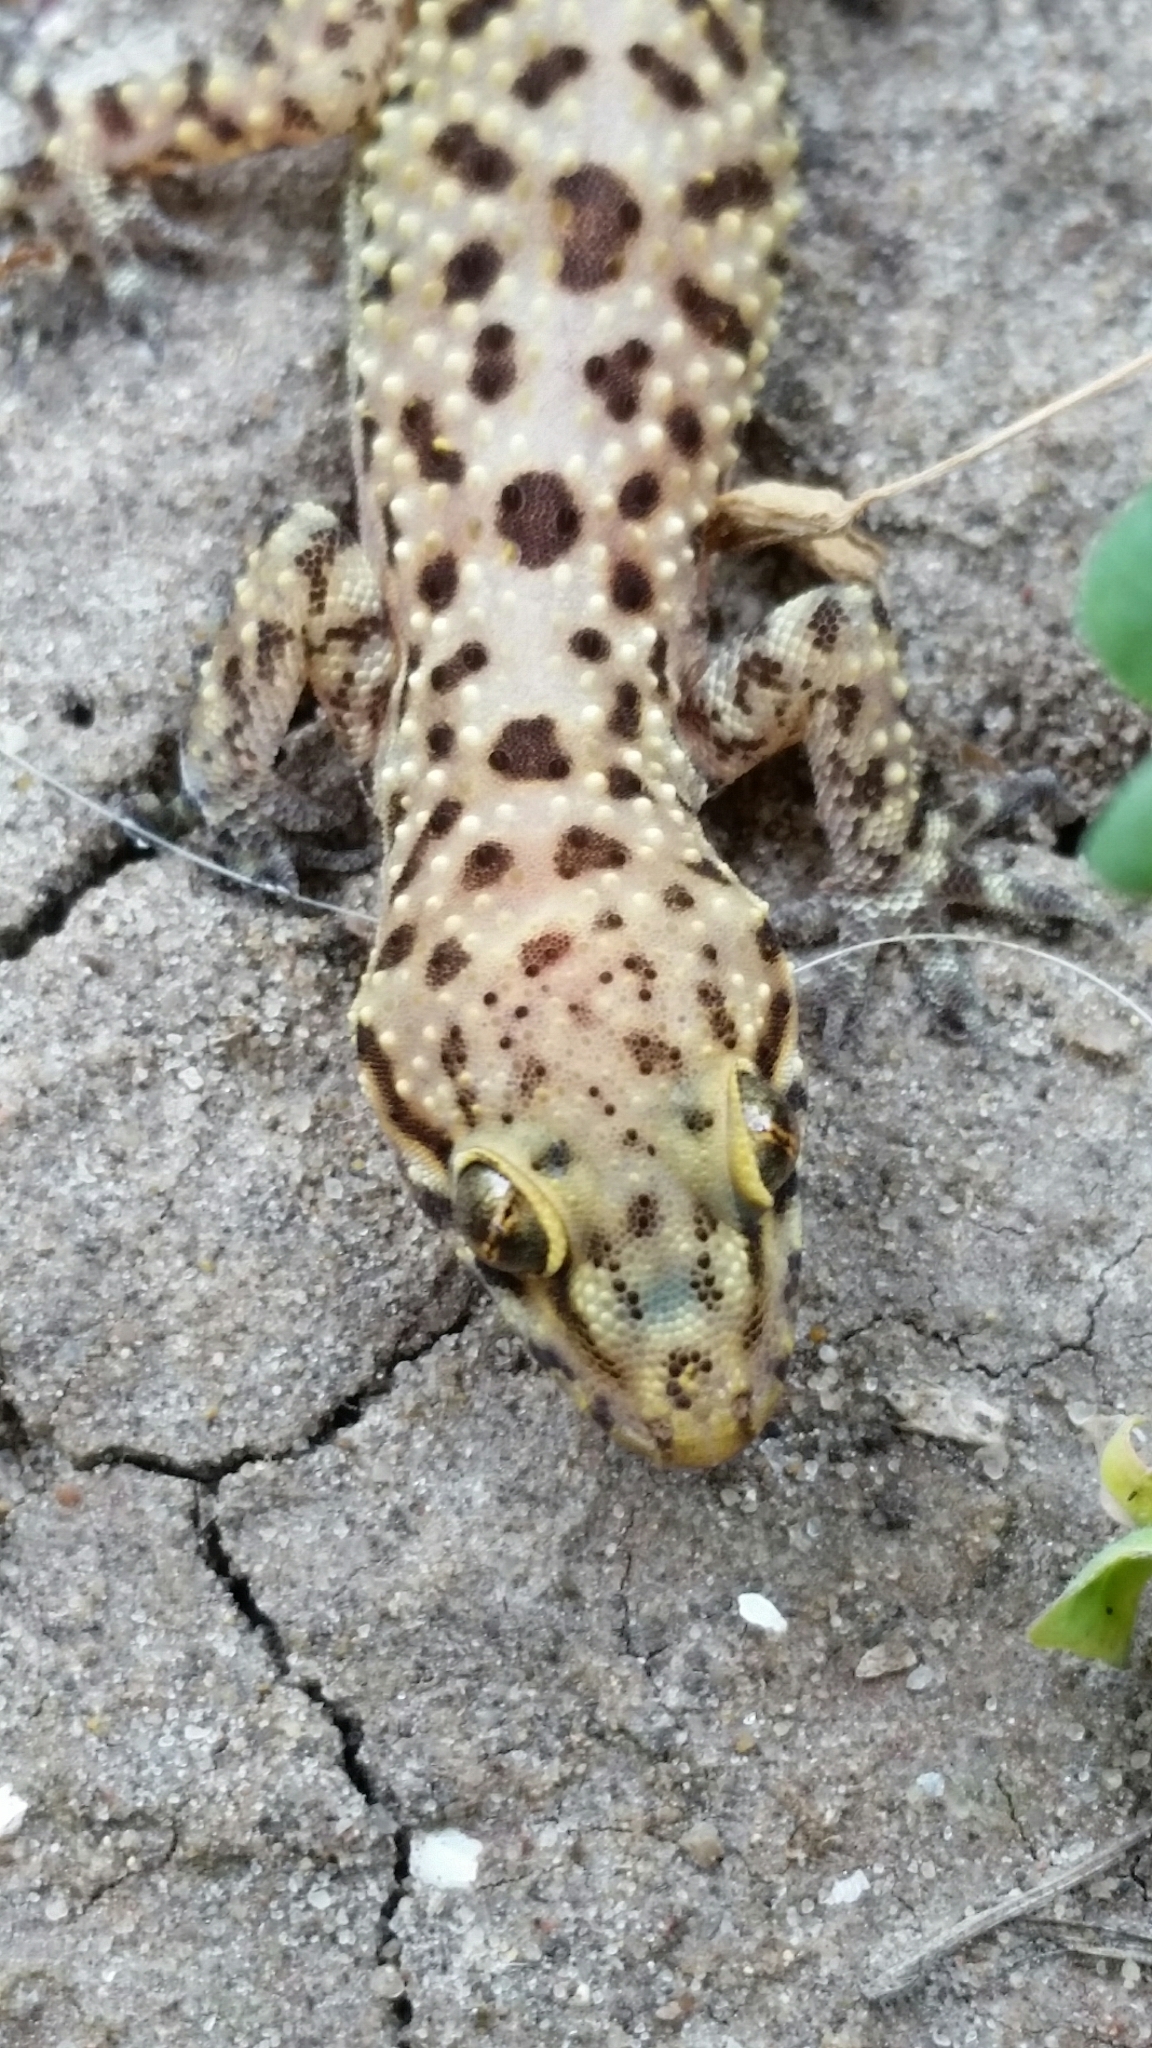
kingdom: Animalia
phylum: Chordata
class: Squamata
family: Gekkonidae
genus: Hemidactylus
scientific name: Hemidactylus turcicus
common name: Turkish gecko
